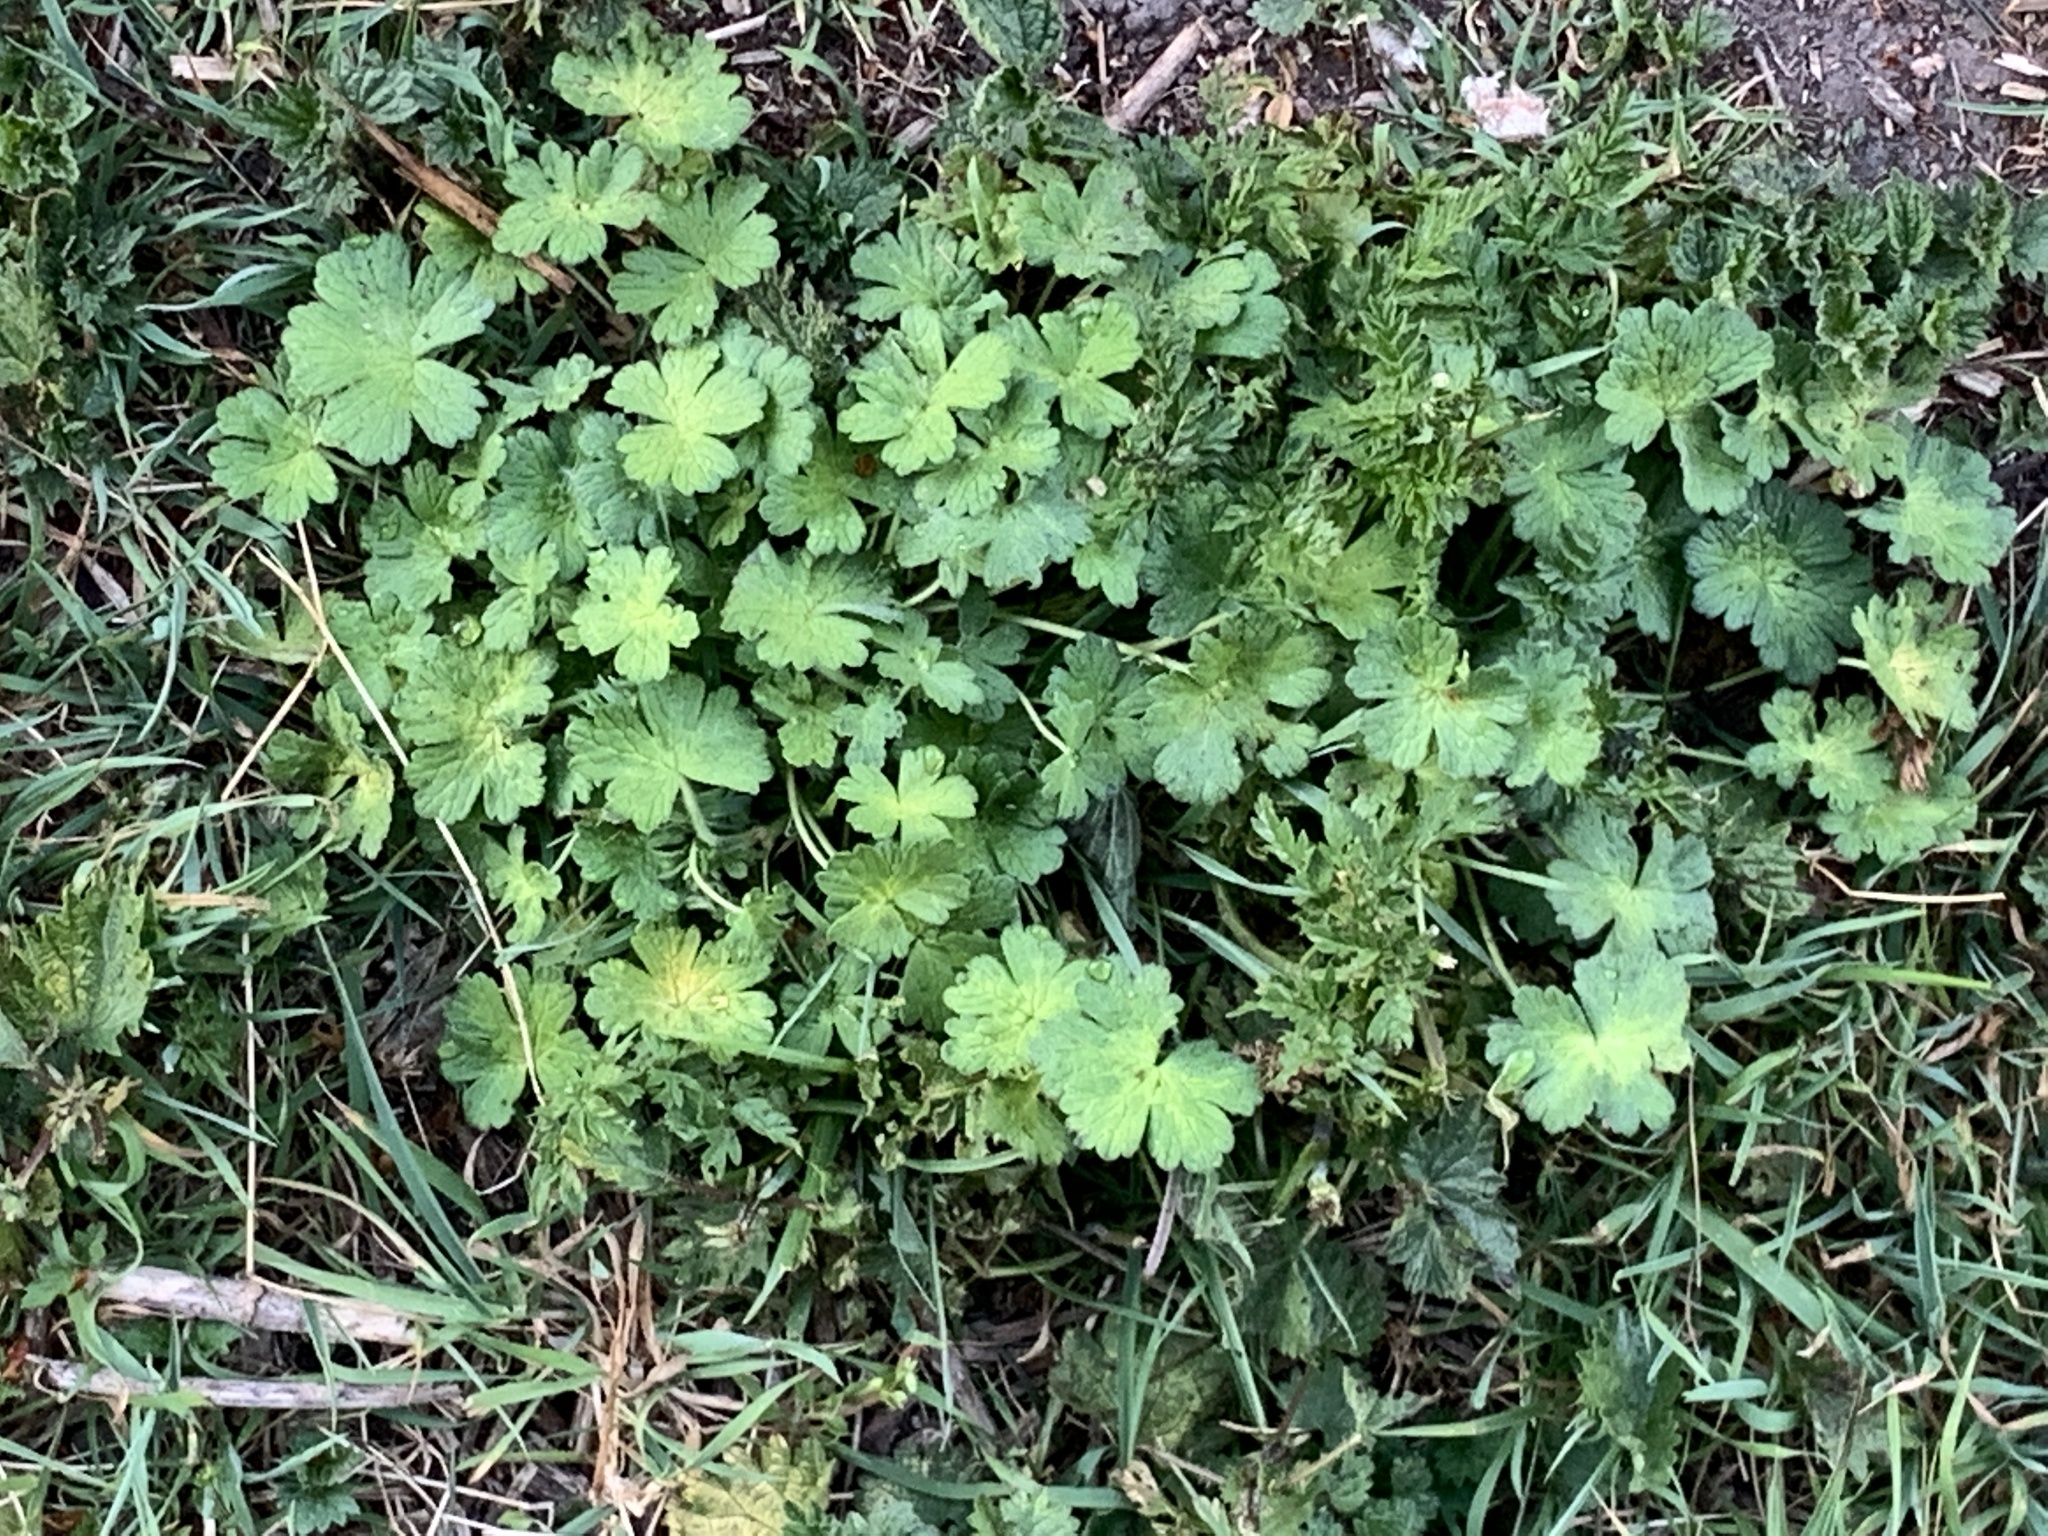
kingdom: Plantae
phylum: Tracheophyta
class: Magnoliopsida
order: Geraniales
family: Geraniaceae
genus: Geranium
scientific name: Geranium pyrenaicum
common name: Hedgerow crane's-bill
